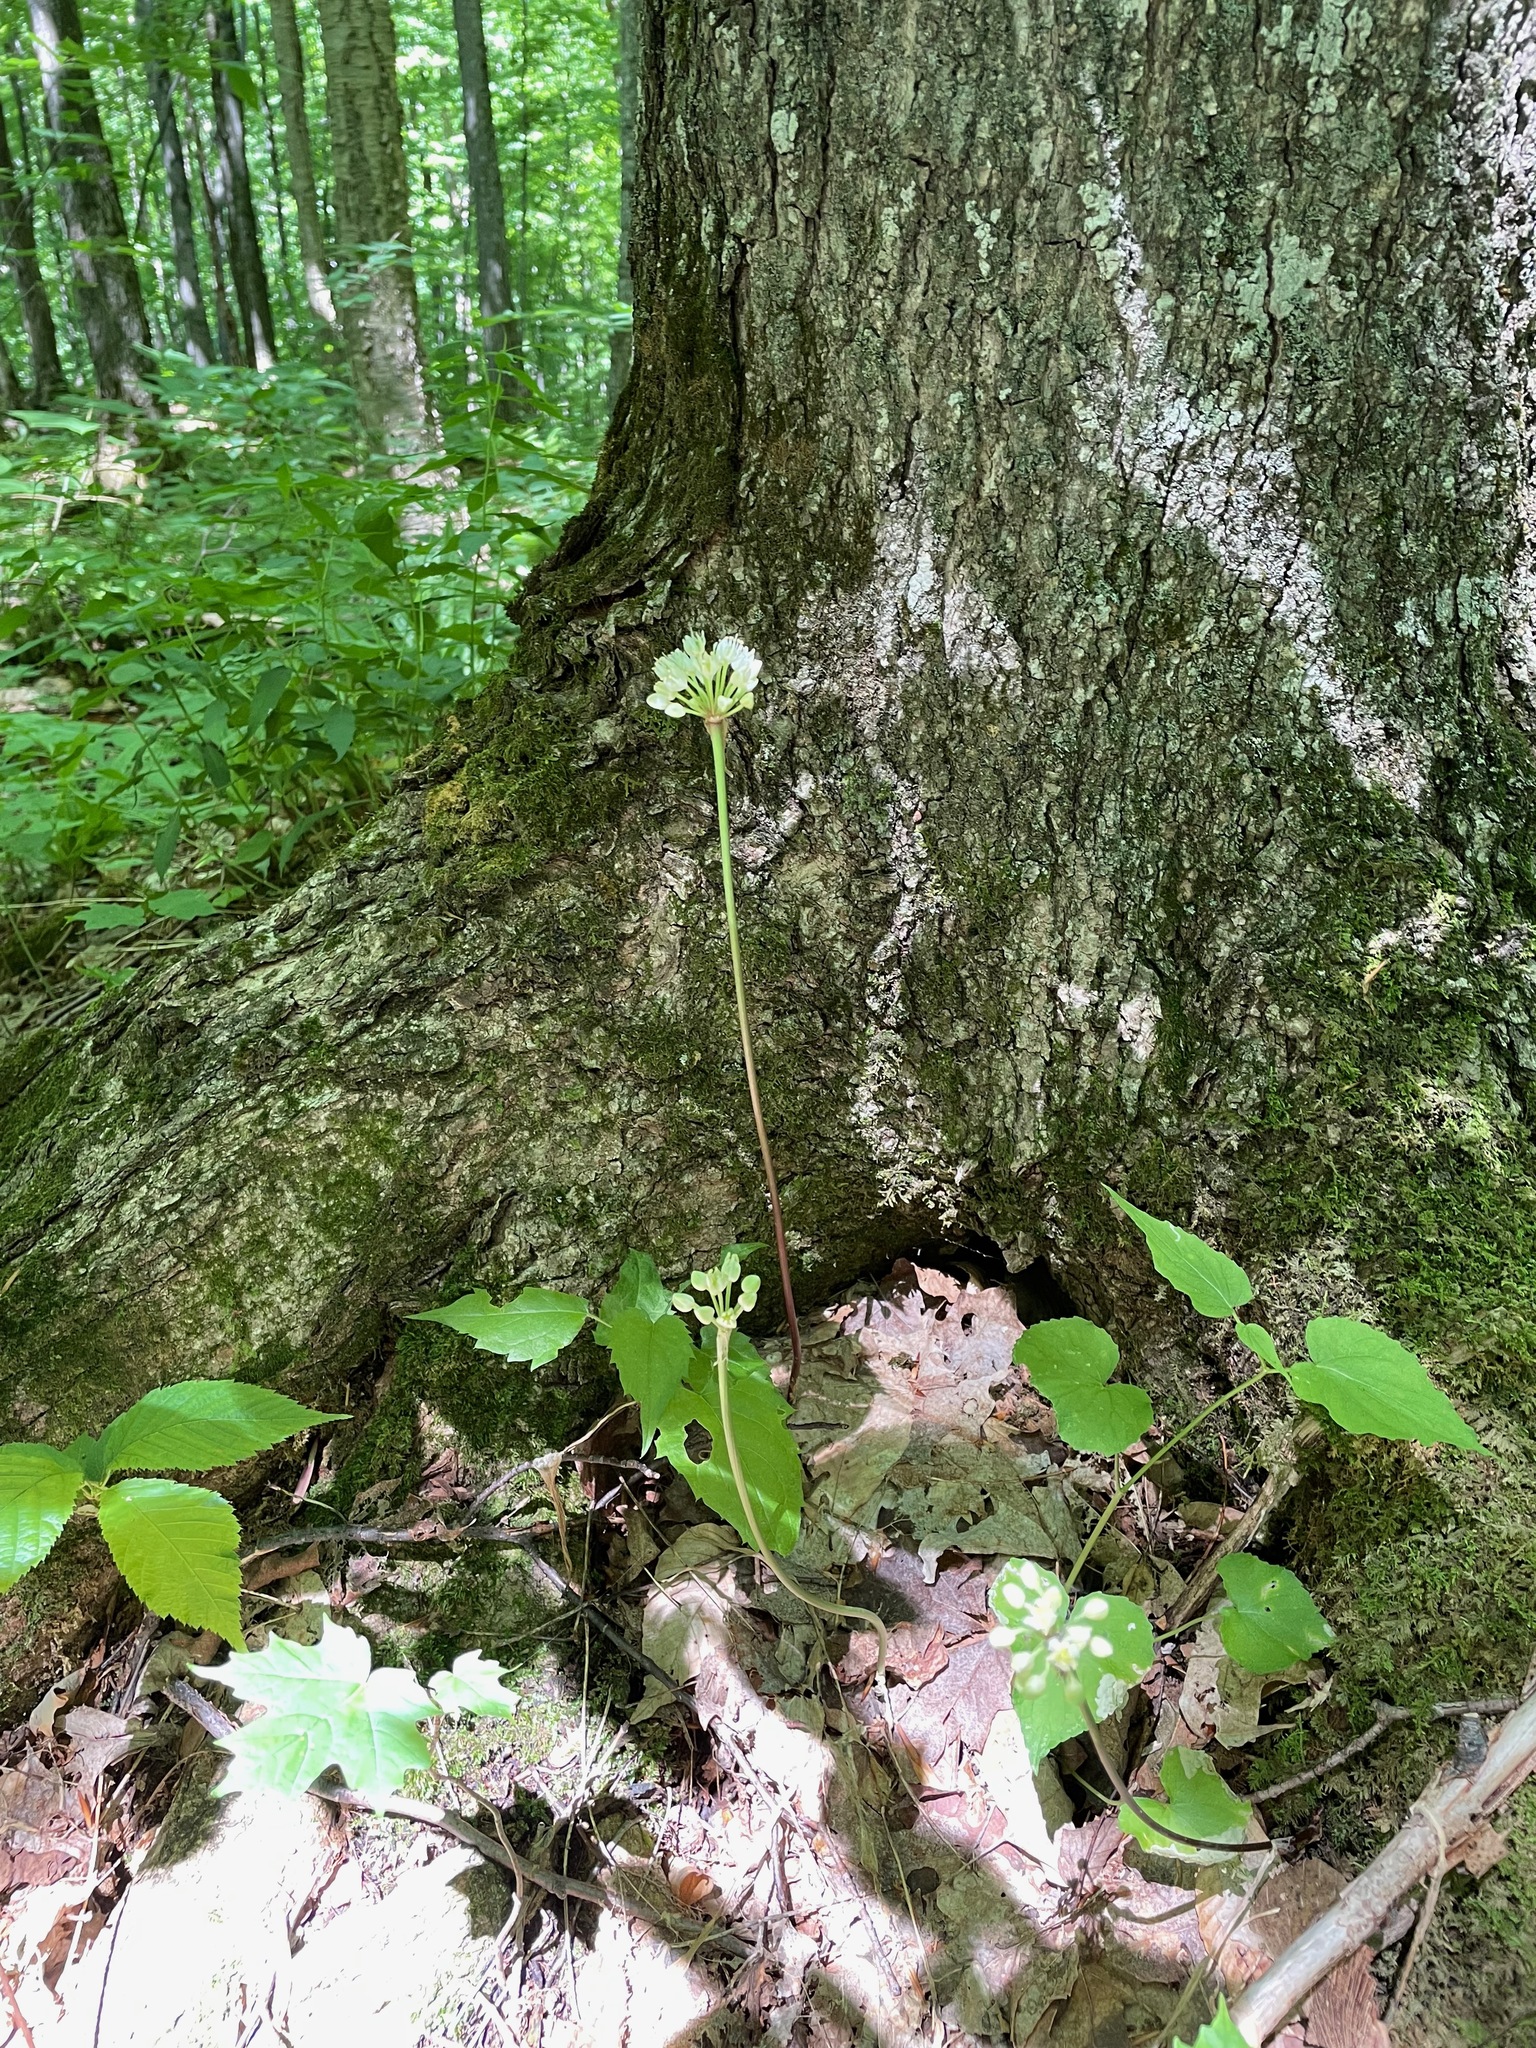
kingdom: Plantae
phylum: Tracheophyta
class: Liliopsida
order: Asparagales
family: Amaryllidaceae
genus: Allium
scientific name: Allium tricoccum
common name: Ramp
